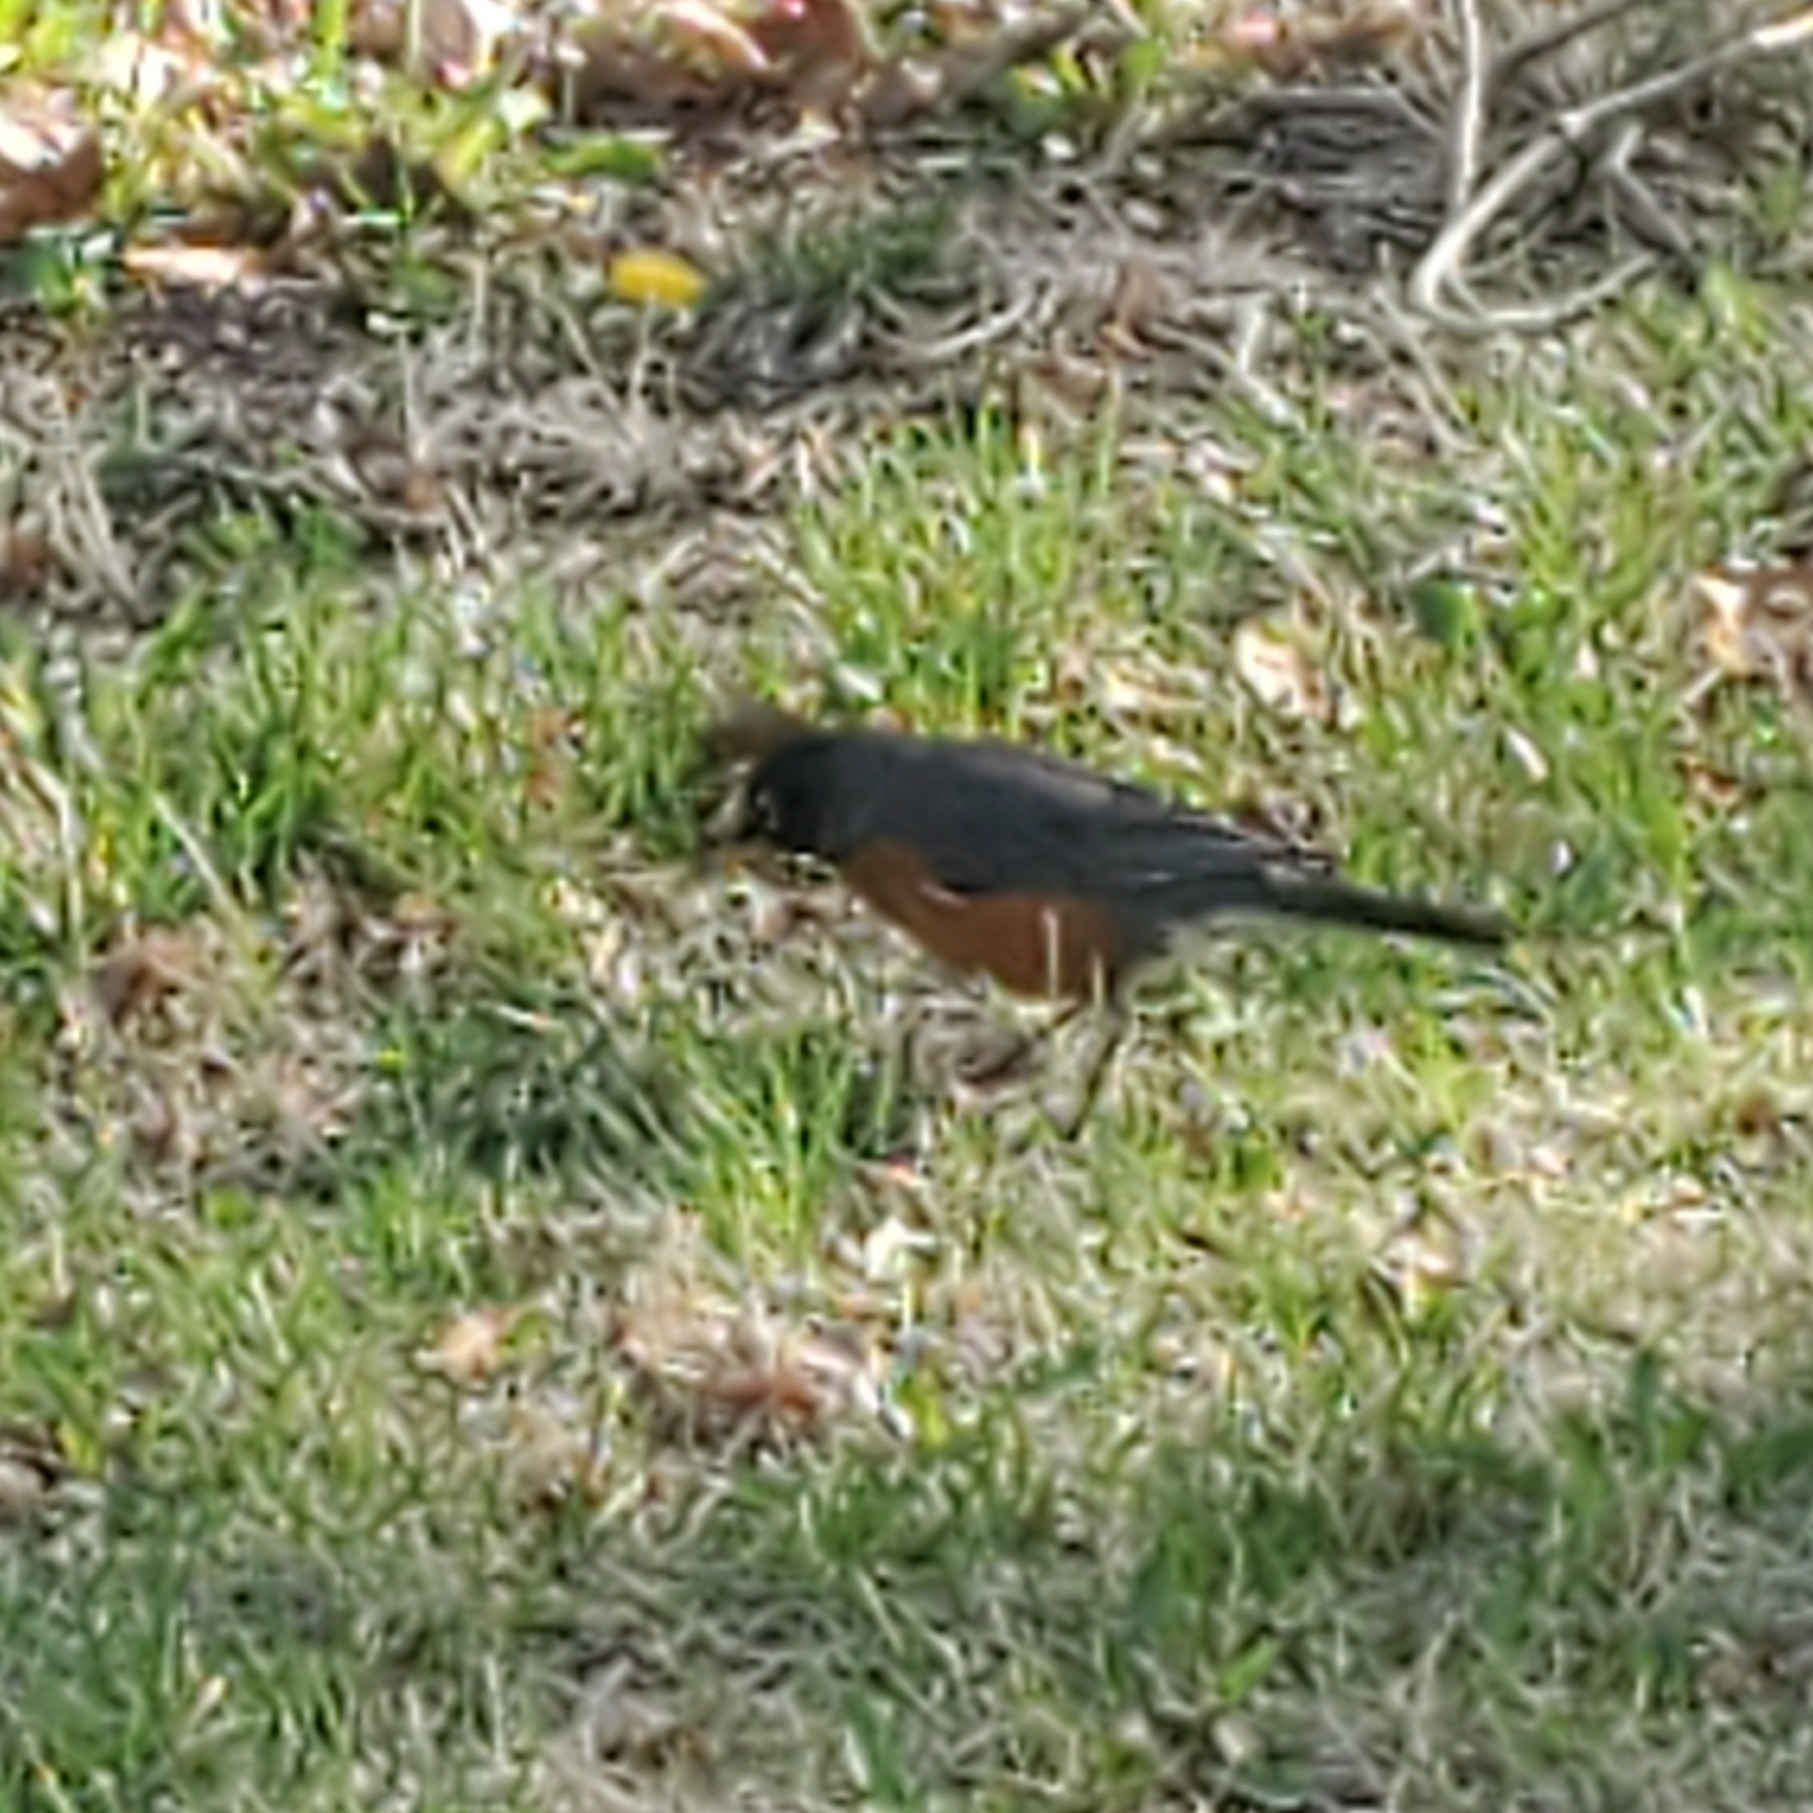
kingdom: Animalia
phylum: Chordata
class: Aves
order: Passeriformes
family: Turdidae
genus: Turdus
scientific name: Turdus migratorius
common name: American robin
